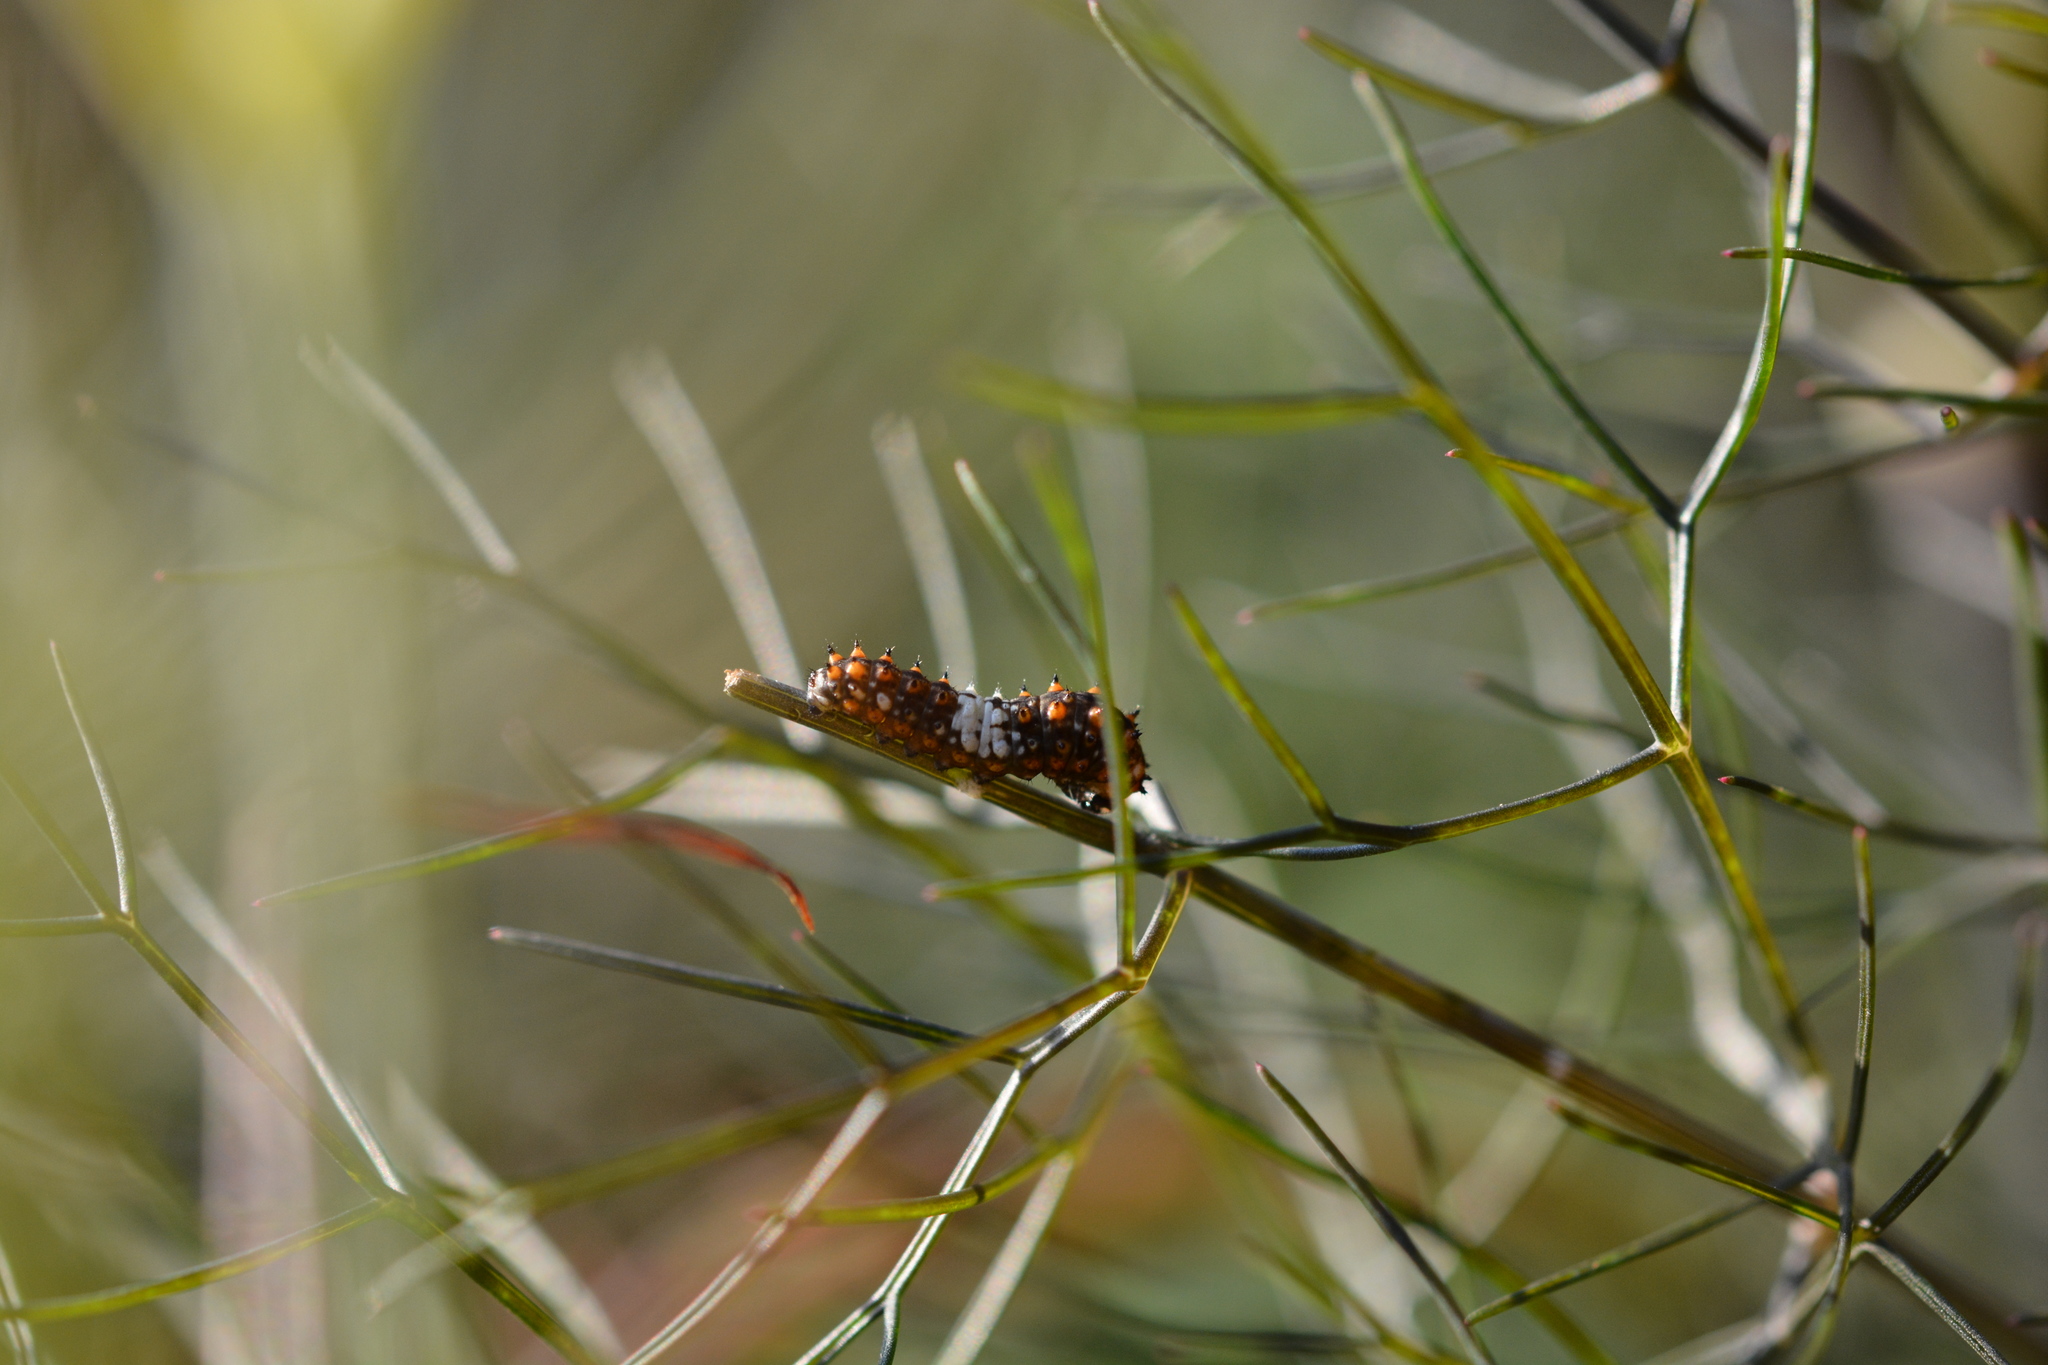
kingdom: Animalia
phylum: Arthropoda
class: Insecta
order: Lepidoptera
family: Papilionidae
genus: Papilio
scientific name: Papilio polyxenes
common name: Black swallowtail
